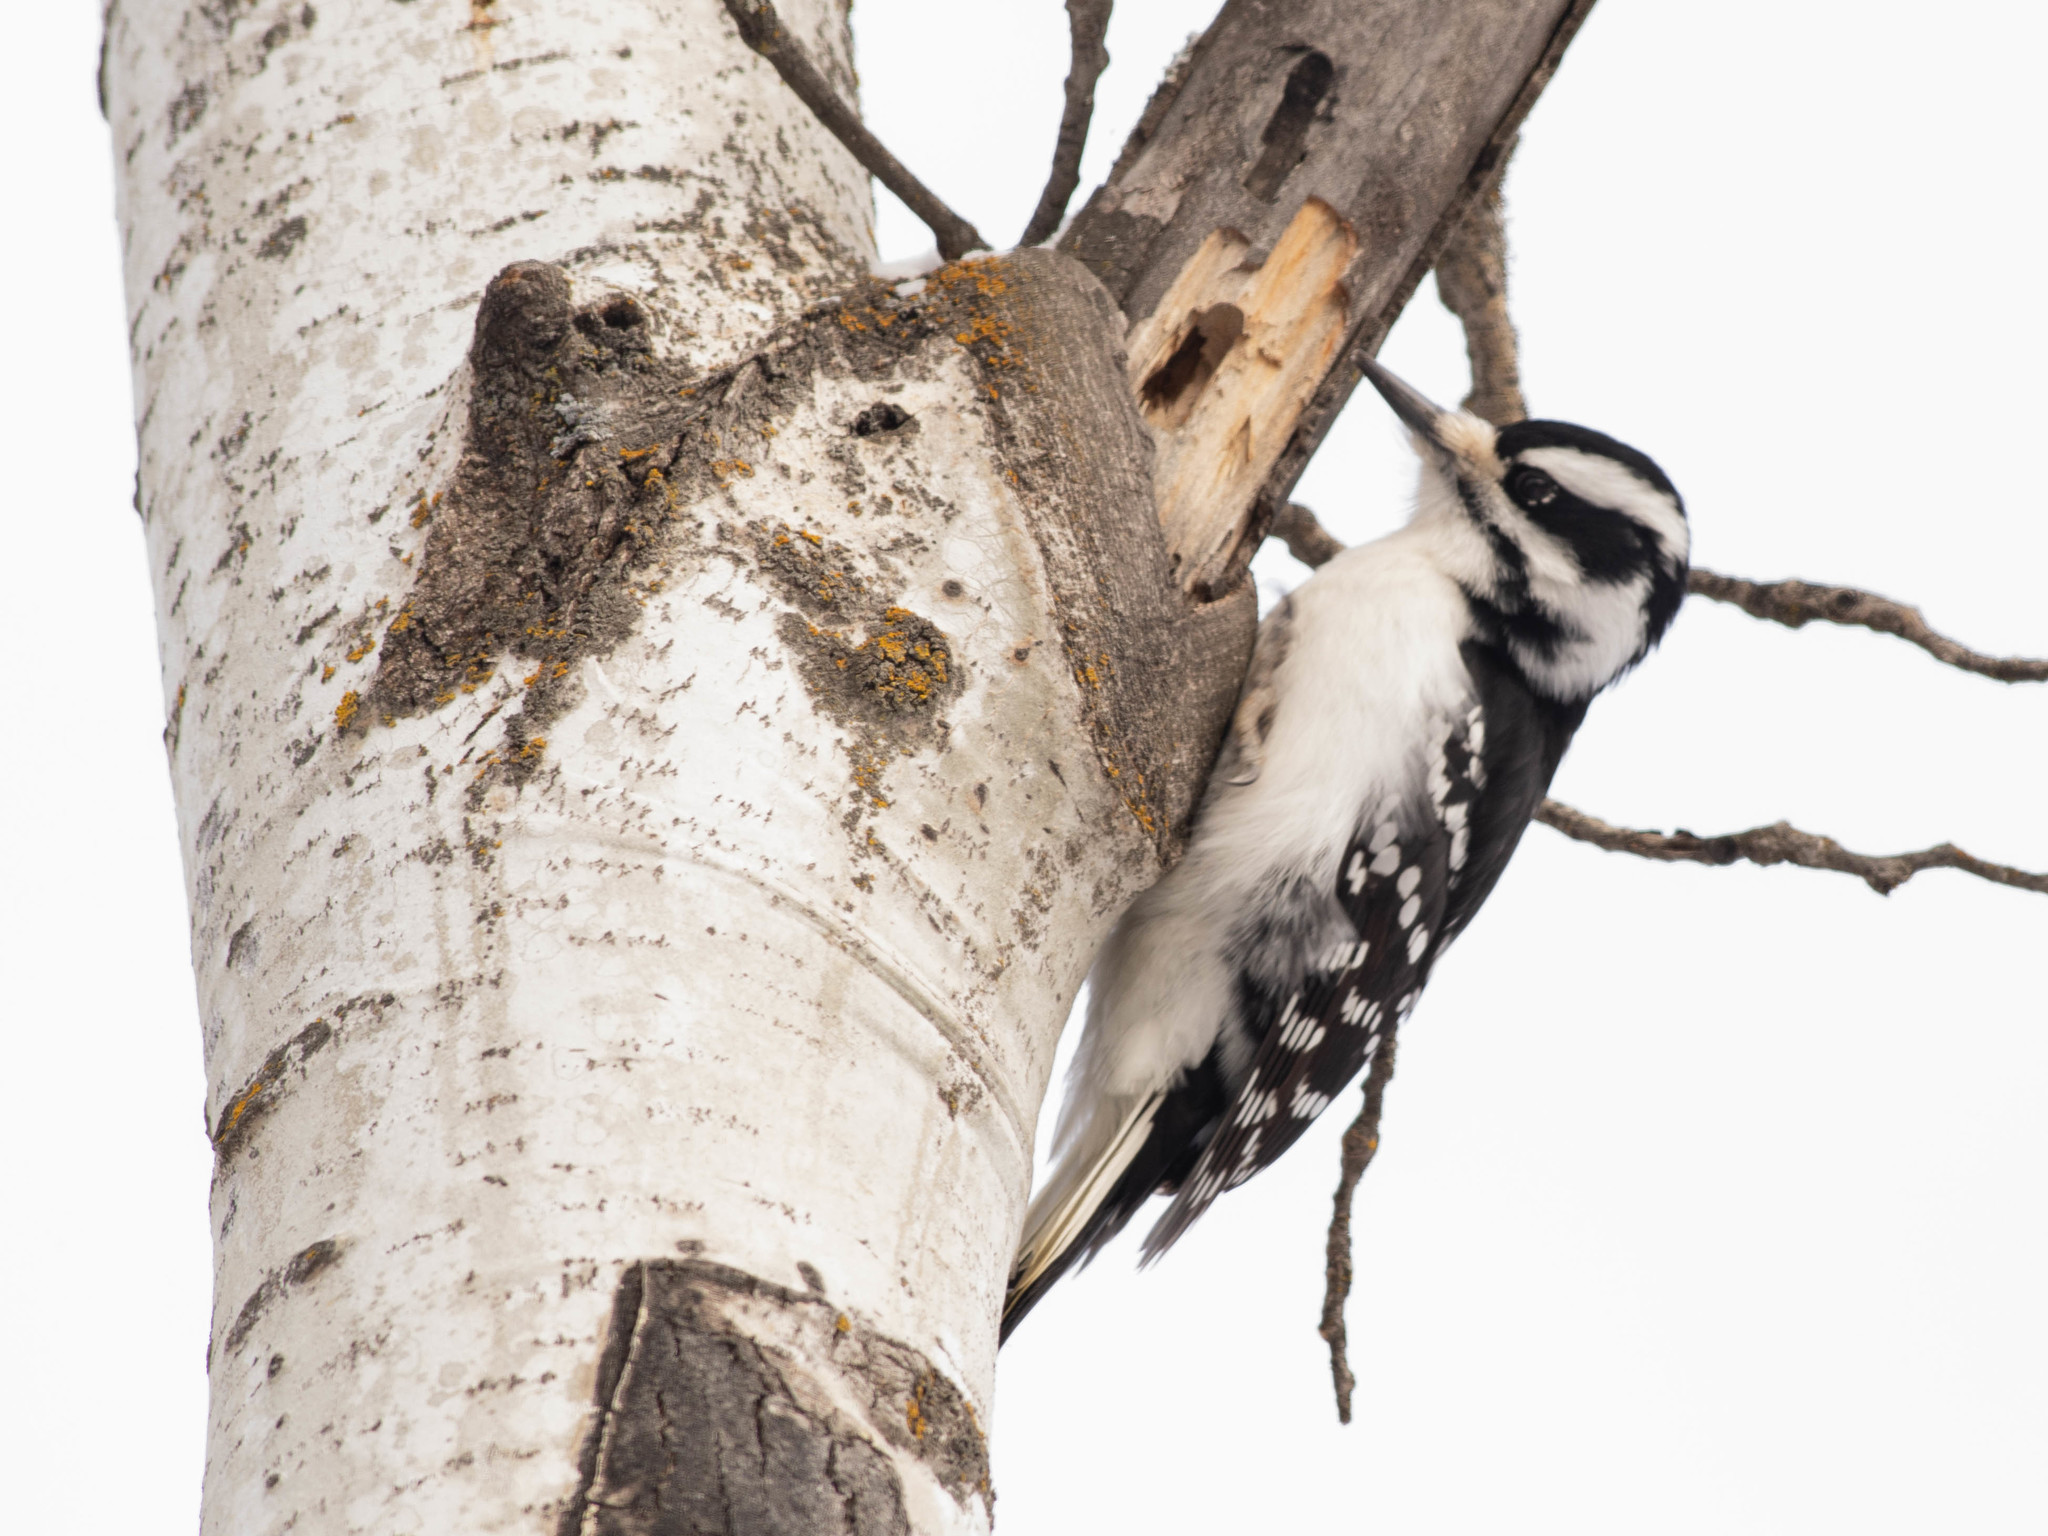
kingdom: Animalia
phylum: Chordata
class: Aves
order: Piciformes
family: Picidae
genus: Leuconotopicus
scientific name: Leuconotopicus villosus
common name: Hairy woodpecker
